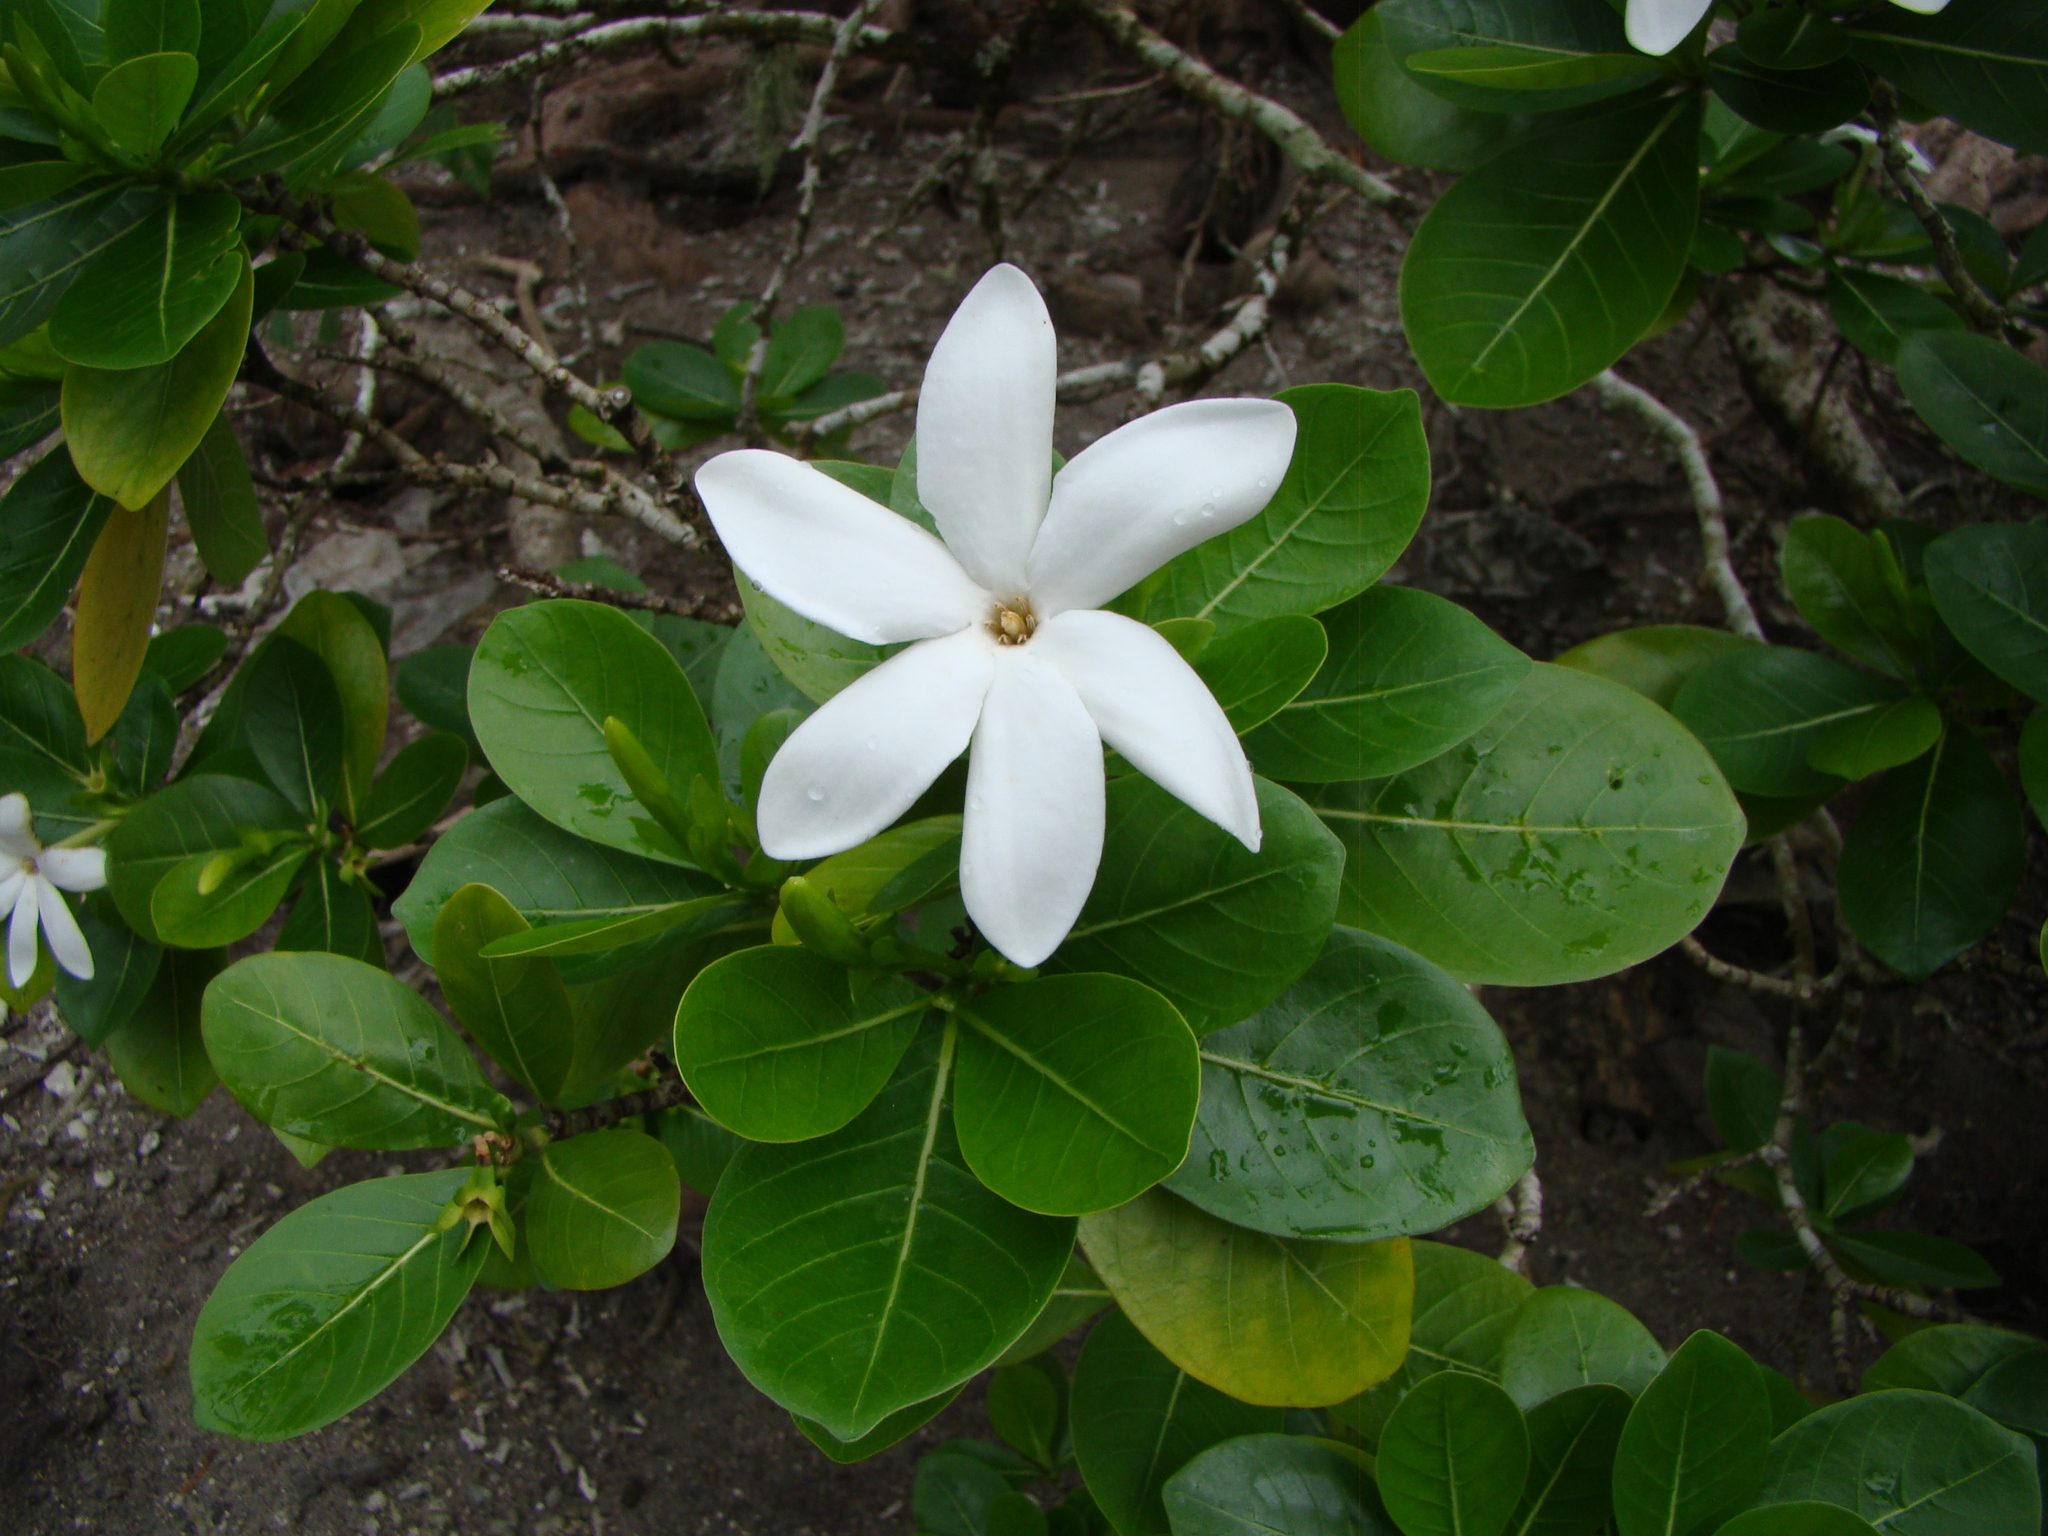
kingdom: Plantae
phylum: Tracheophyta
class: Magnoliopsida
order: Gentianales
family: Rubiaceae
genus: Gardenia
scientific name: Gardenia taitensis
